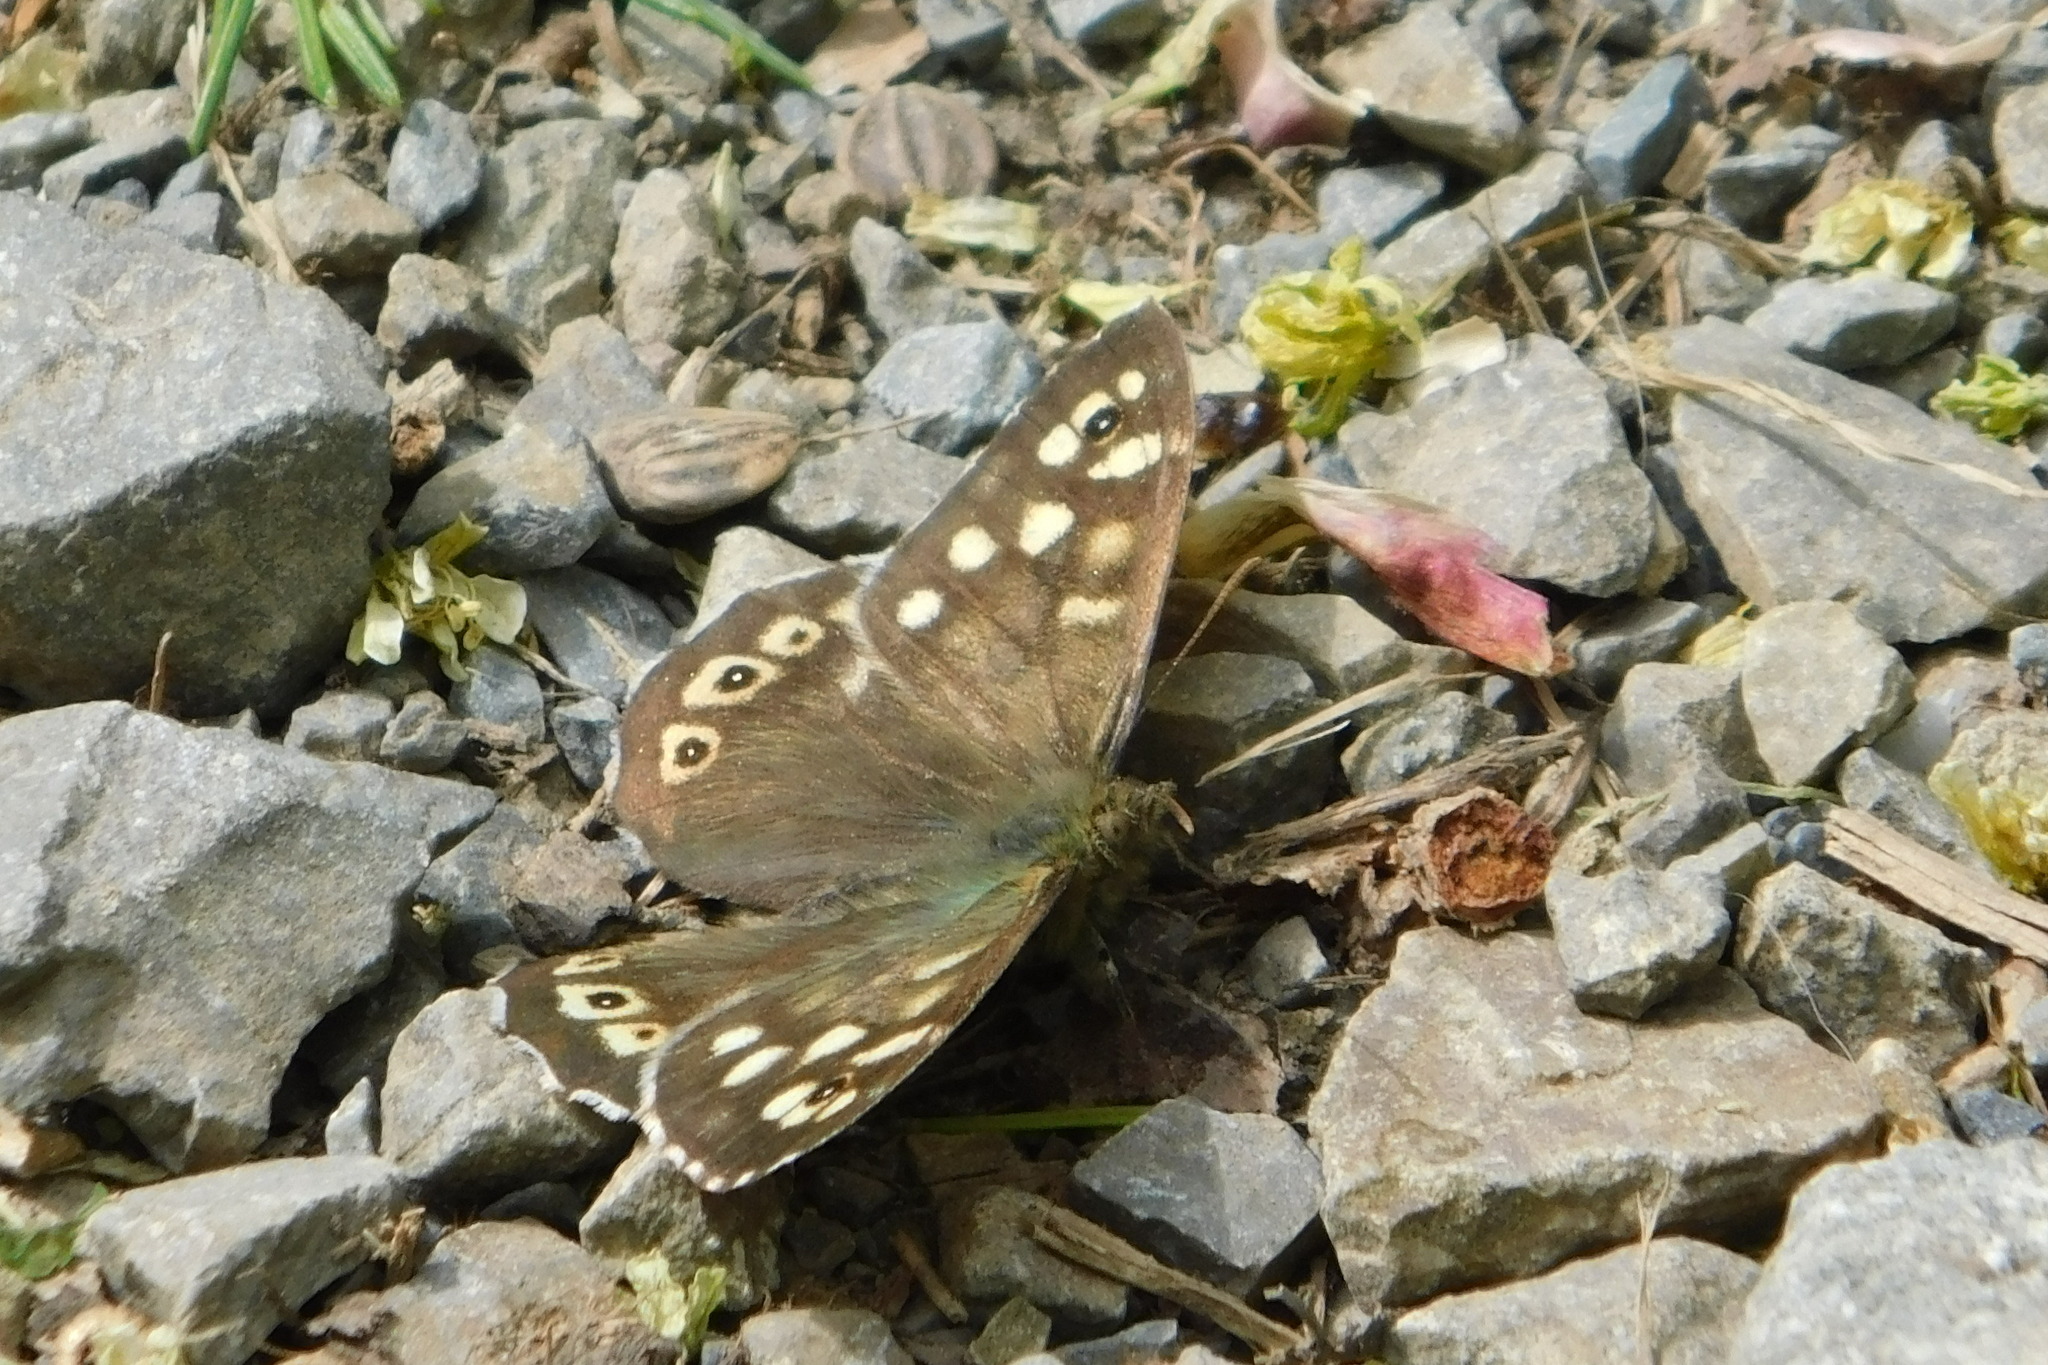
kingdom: Animalia
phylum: Arthropoda
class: Insecta
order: Lepidoptera
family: Nymphalidae
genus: Pararge
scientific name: Pararge aegeria
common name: Speckled wood
